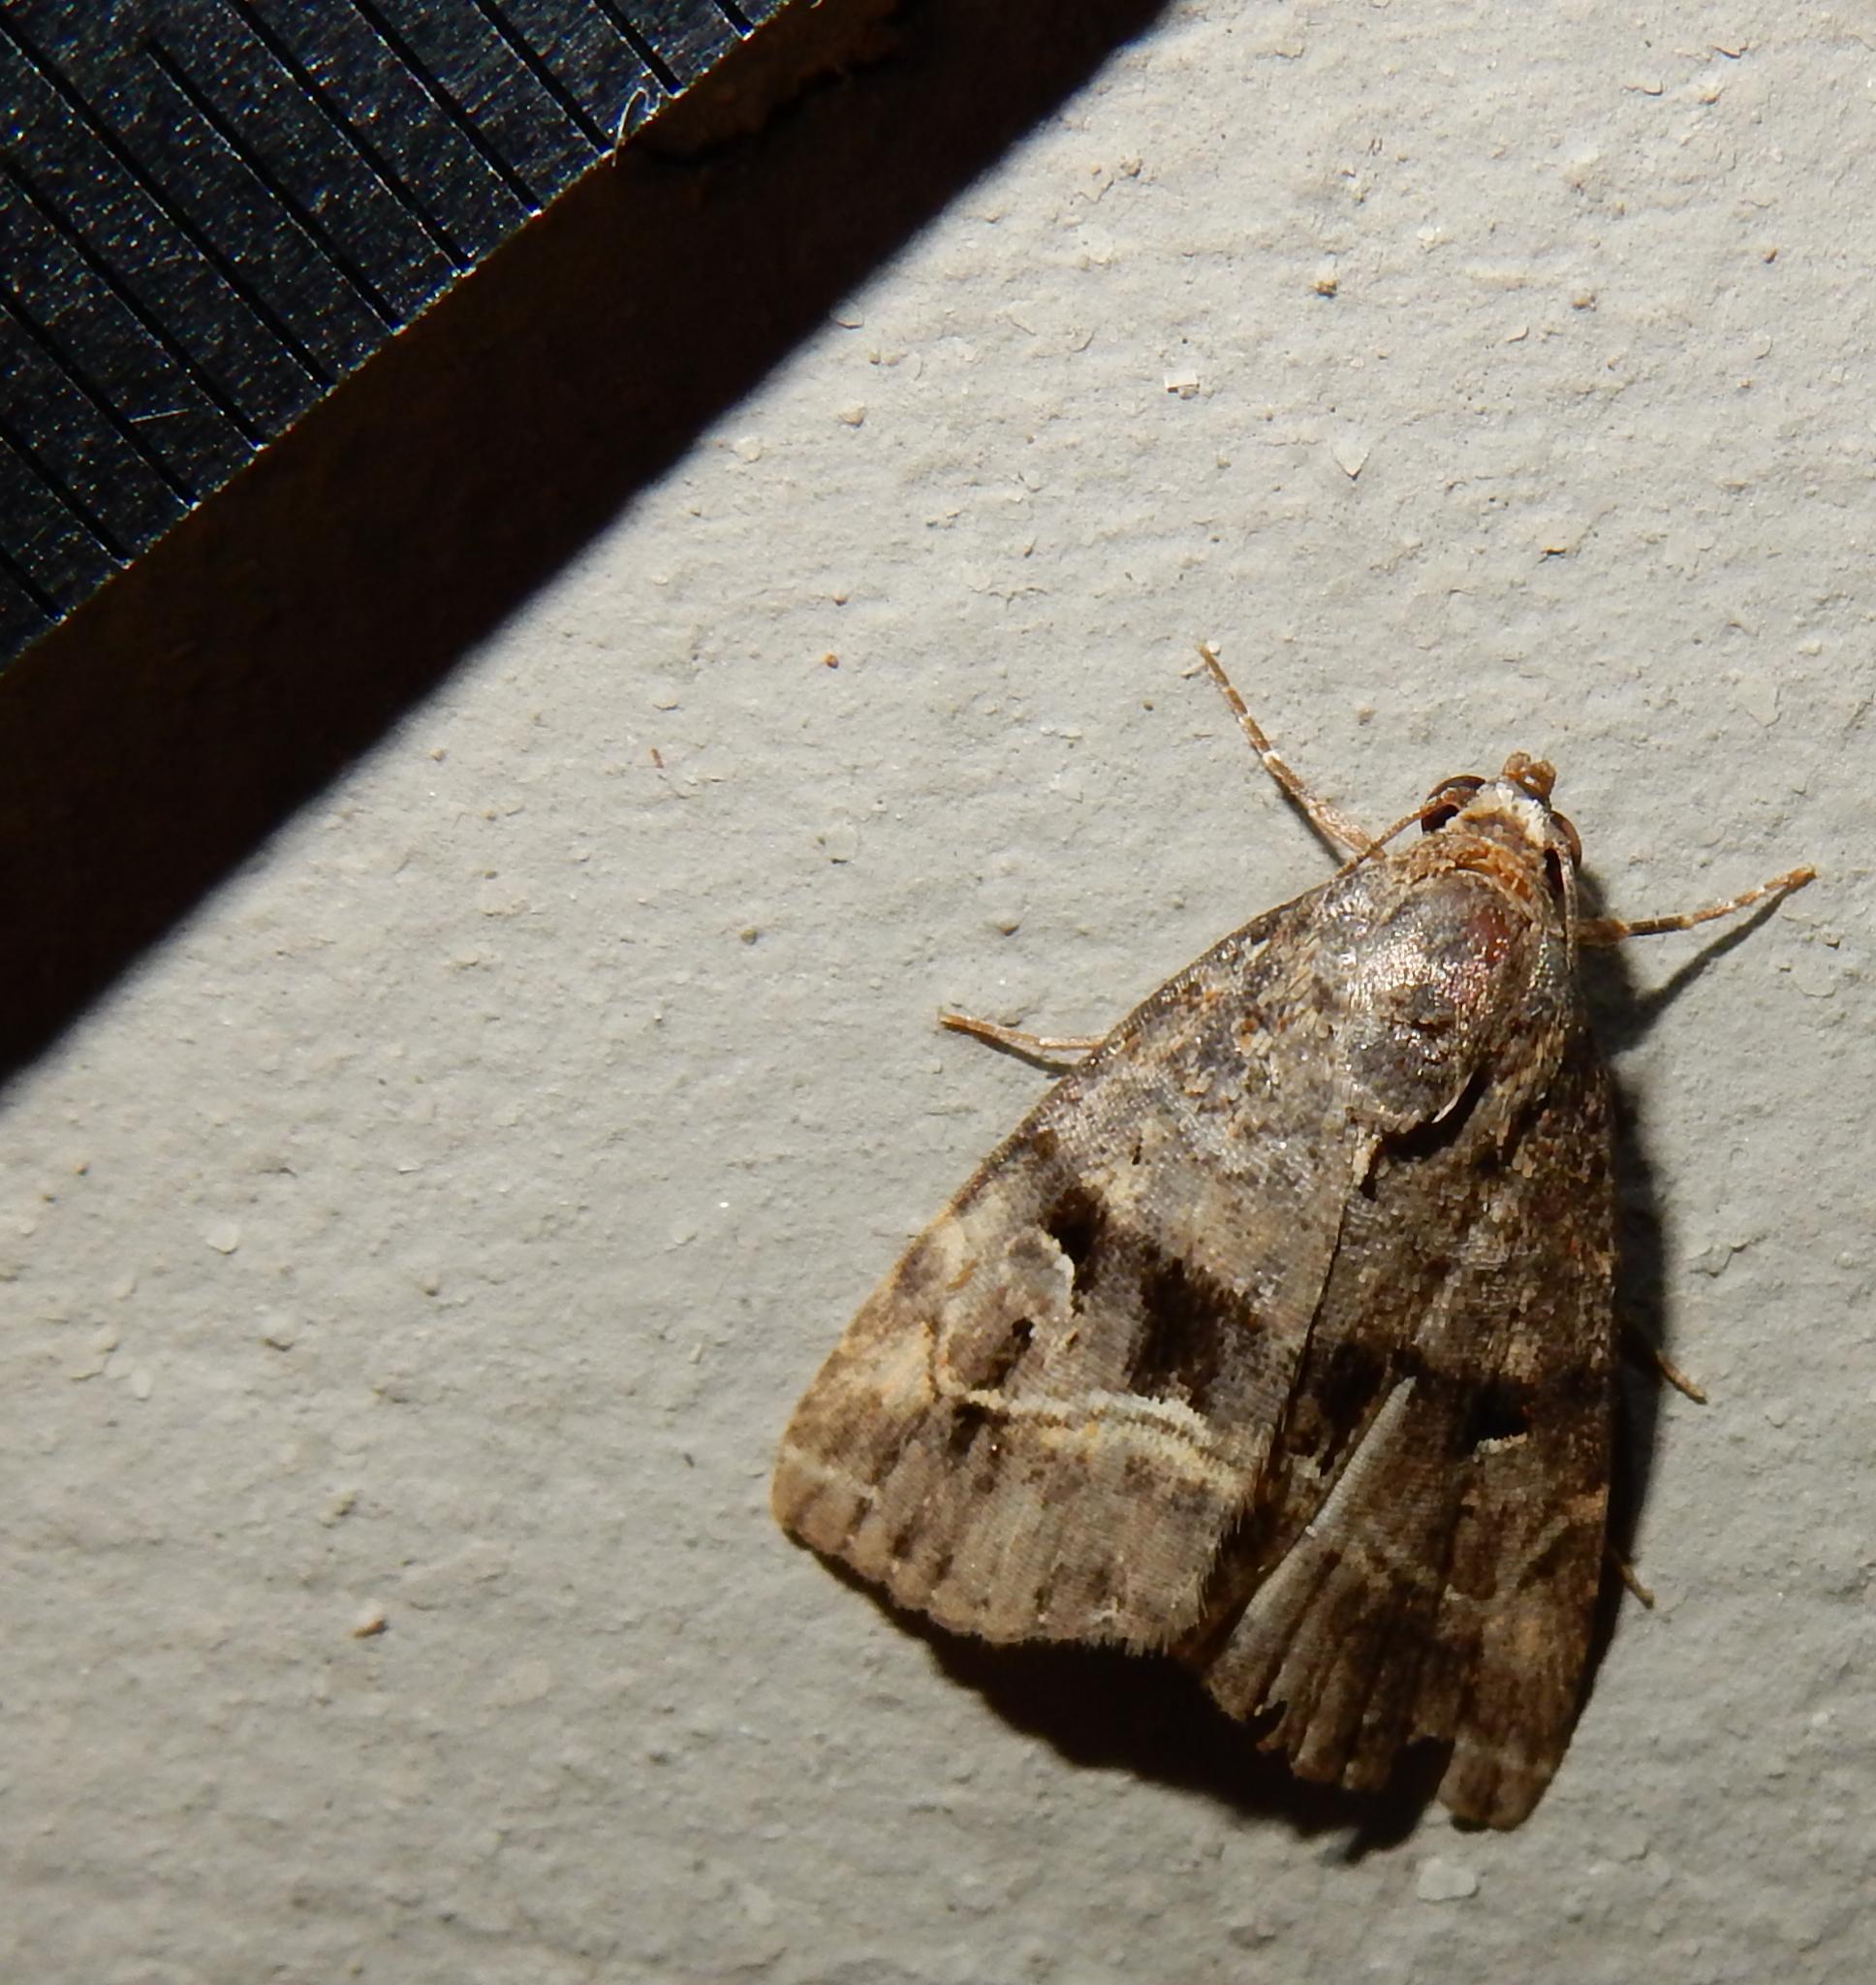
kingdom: Animalia
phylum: Arthropoda
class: Insecta
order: Lepidoptera
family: Noctuidae
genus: Ozarba
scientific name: Ozarba corniculans
